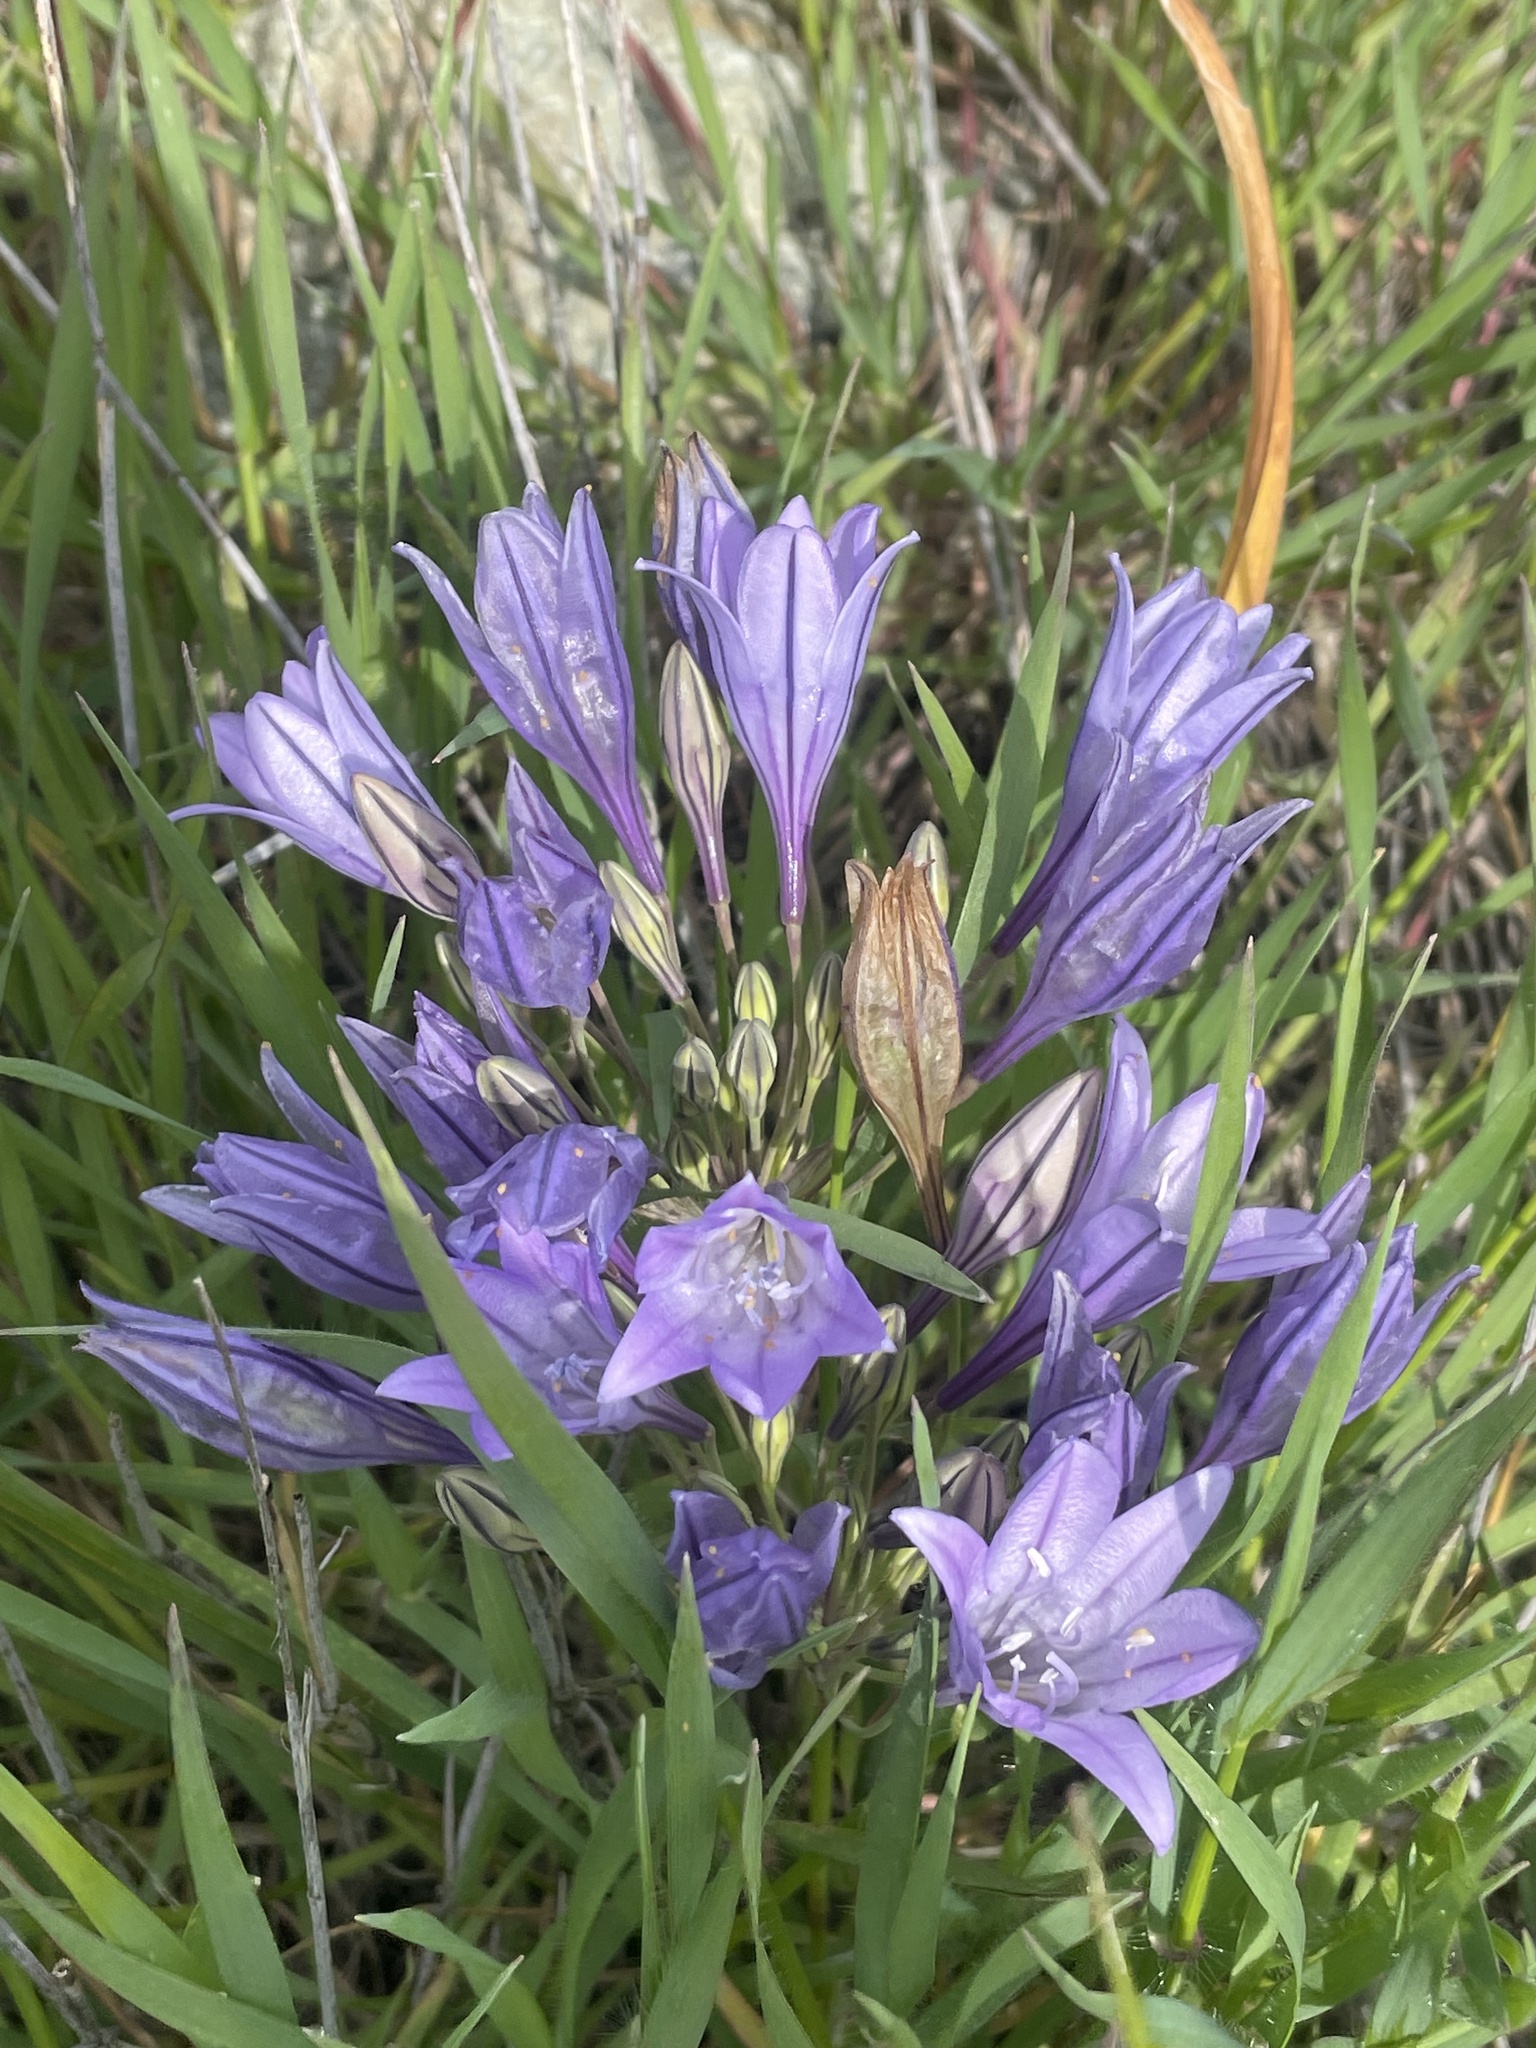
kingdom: Plantae
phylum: Tracheophyta
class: Liliopsida
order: Asparagales
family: Asparagaceae
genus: Triteleia
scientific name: Triteleia laxa
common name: Triplet-lily
